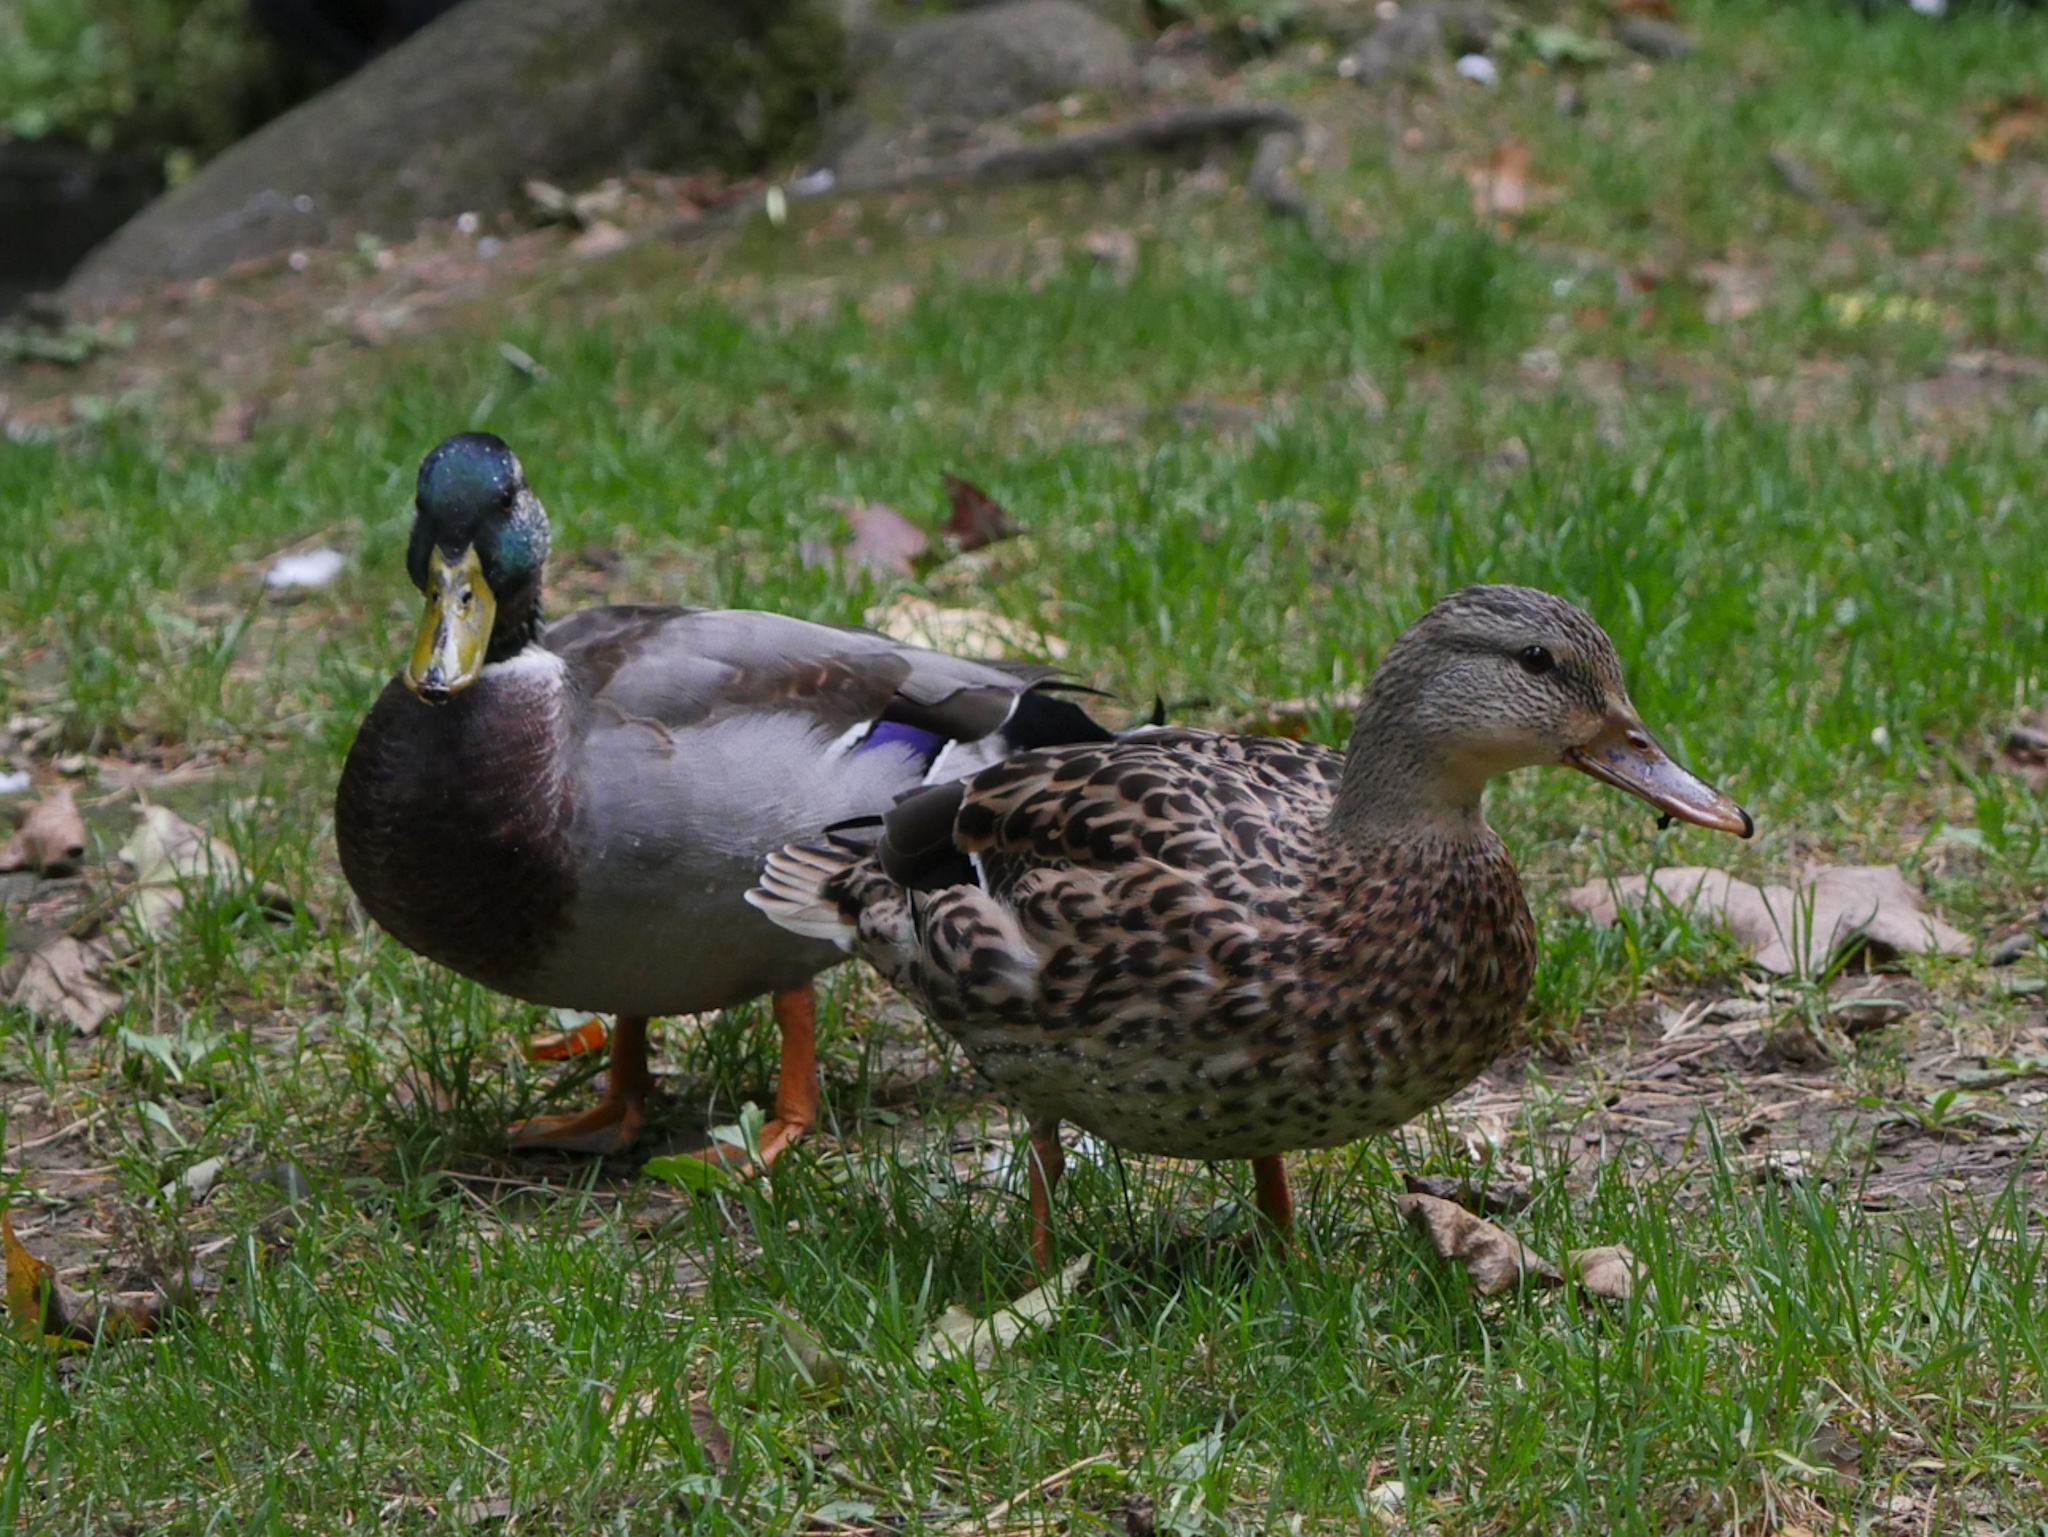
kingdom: Animalia
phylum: Chordata
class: Aves
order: Anseriformes
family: Anatidae
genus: Anas
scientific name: Anas platyrhynchos
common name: Mallard
